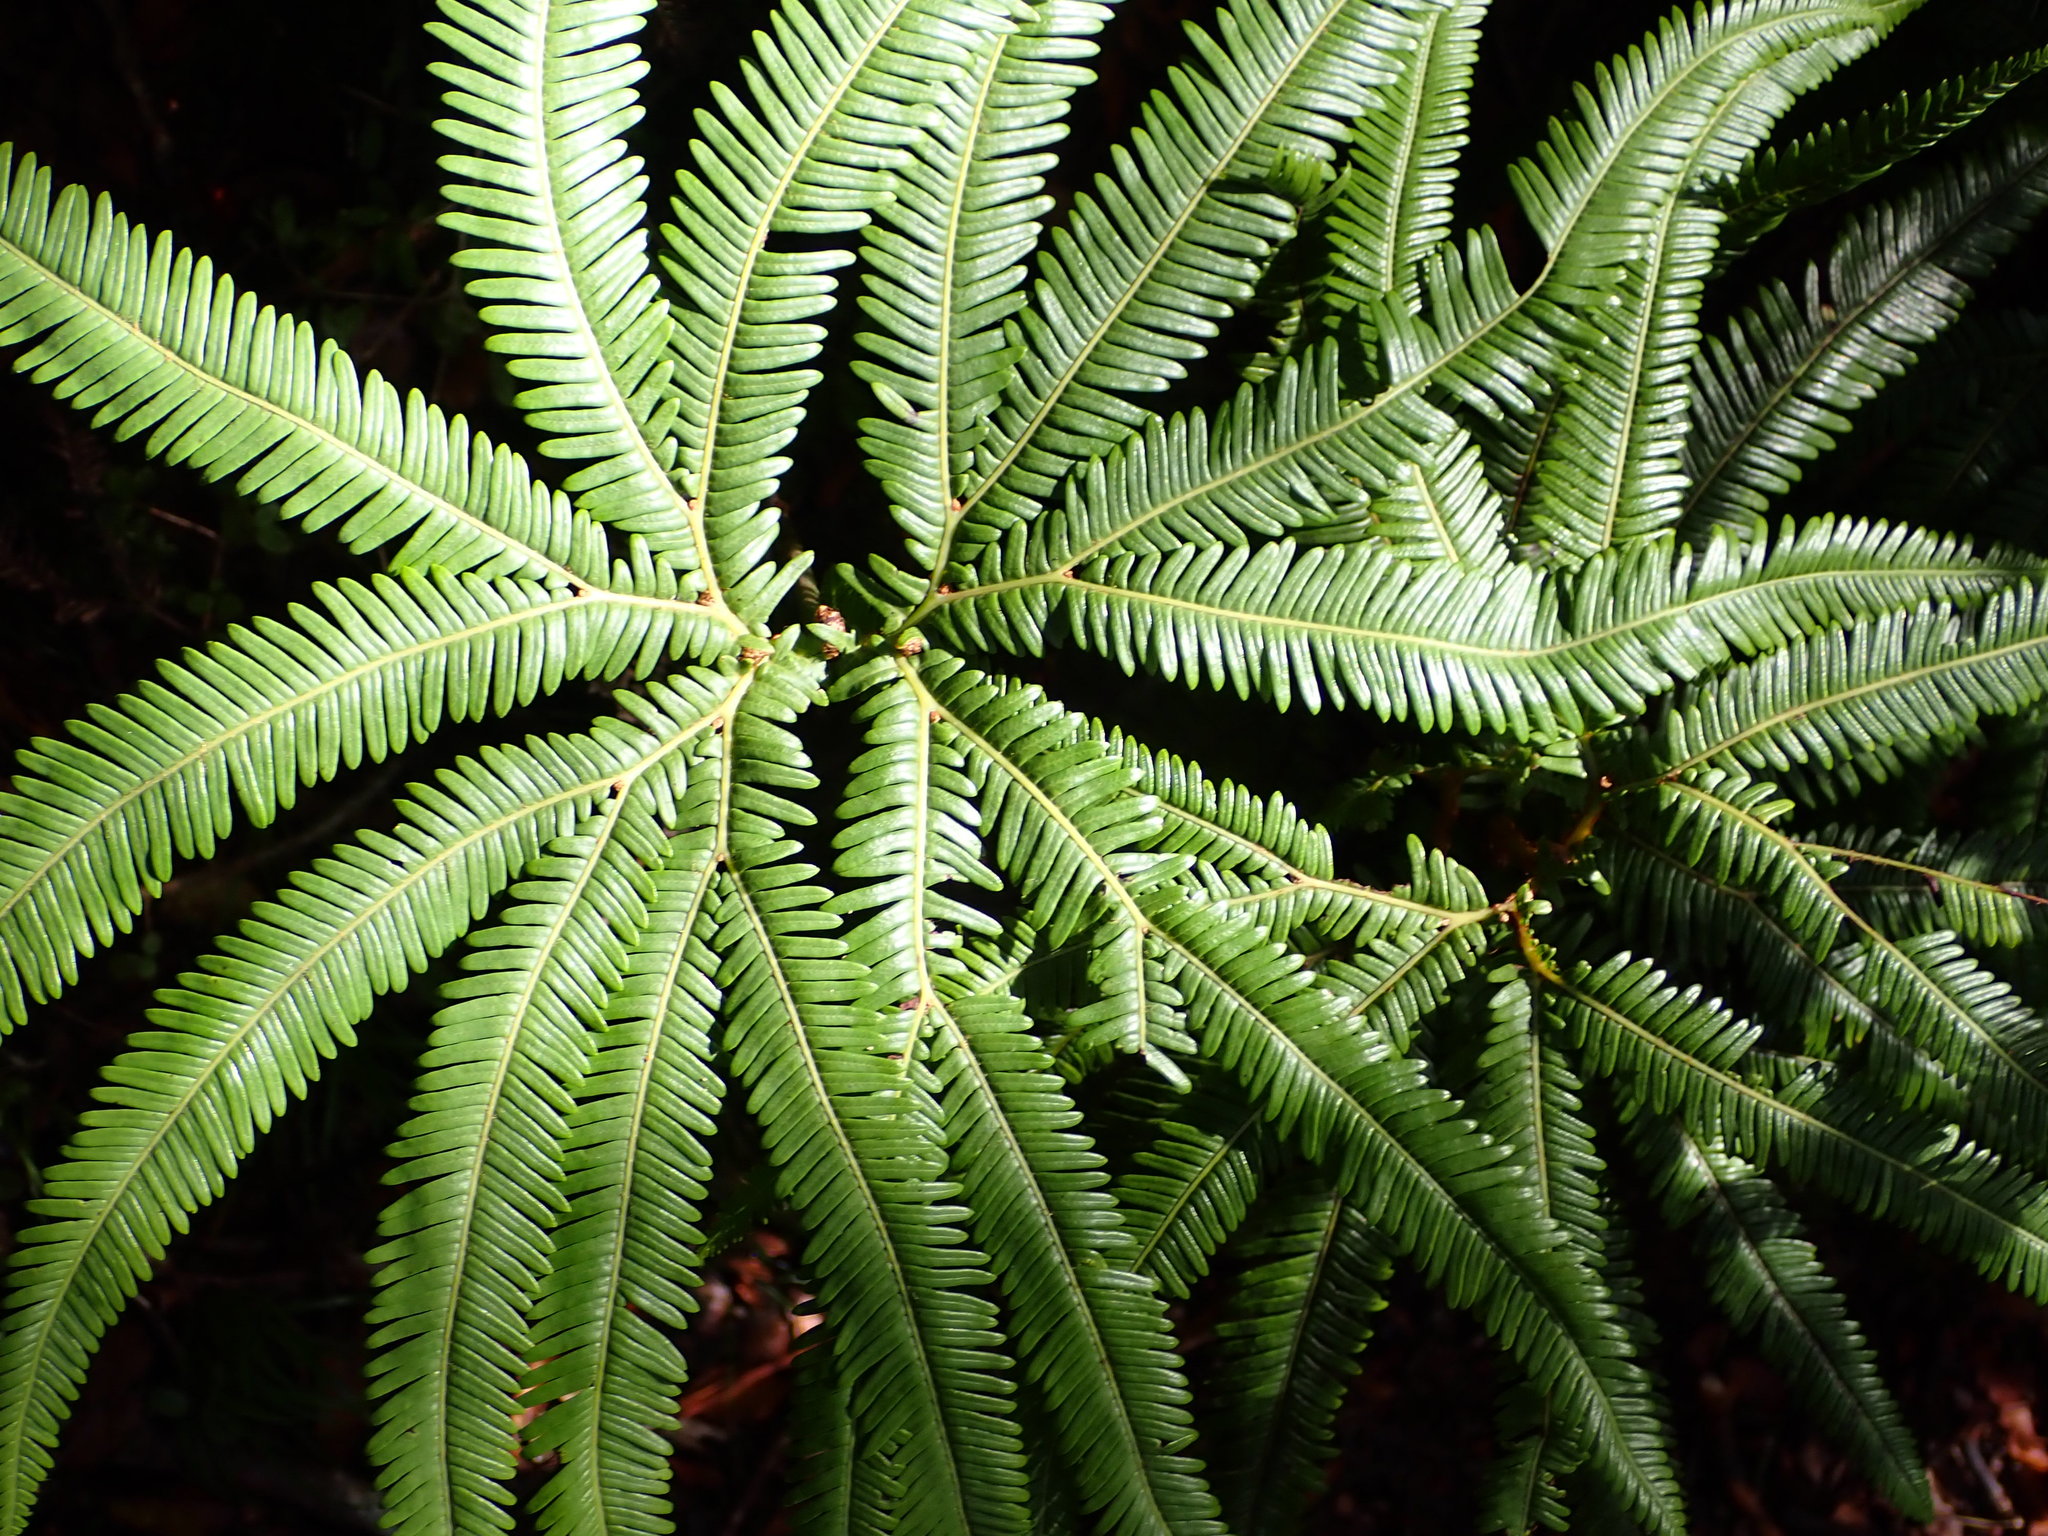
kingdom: Plantae
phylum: Tracheophyta
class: Polypodiopsida
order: Gleicheniales
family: Gleicheniaceae
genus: Sticherus
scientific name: Sticherus cunninghamii
